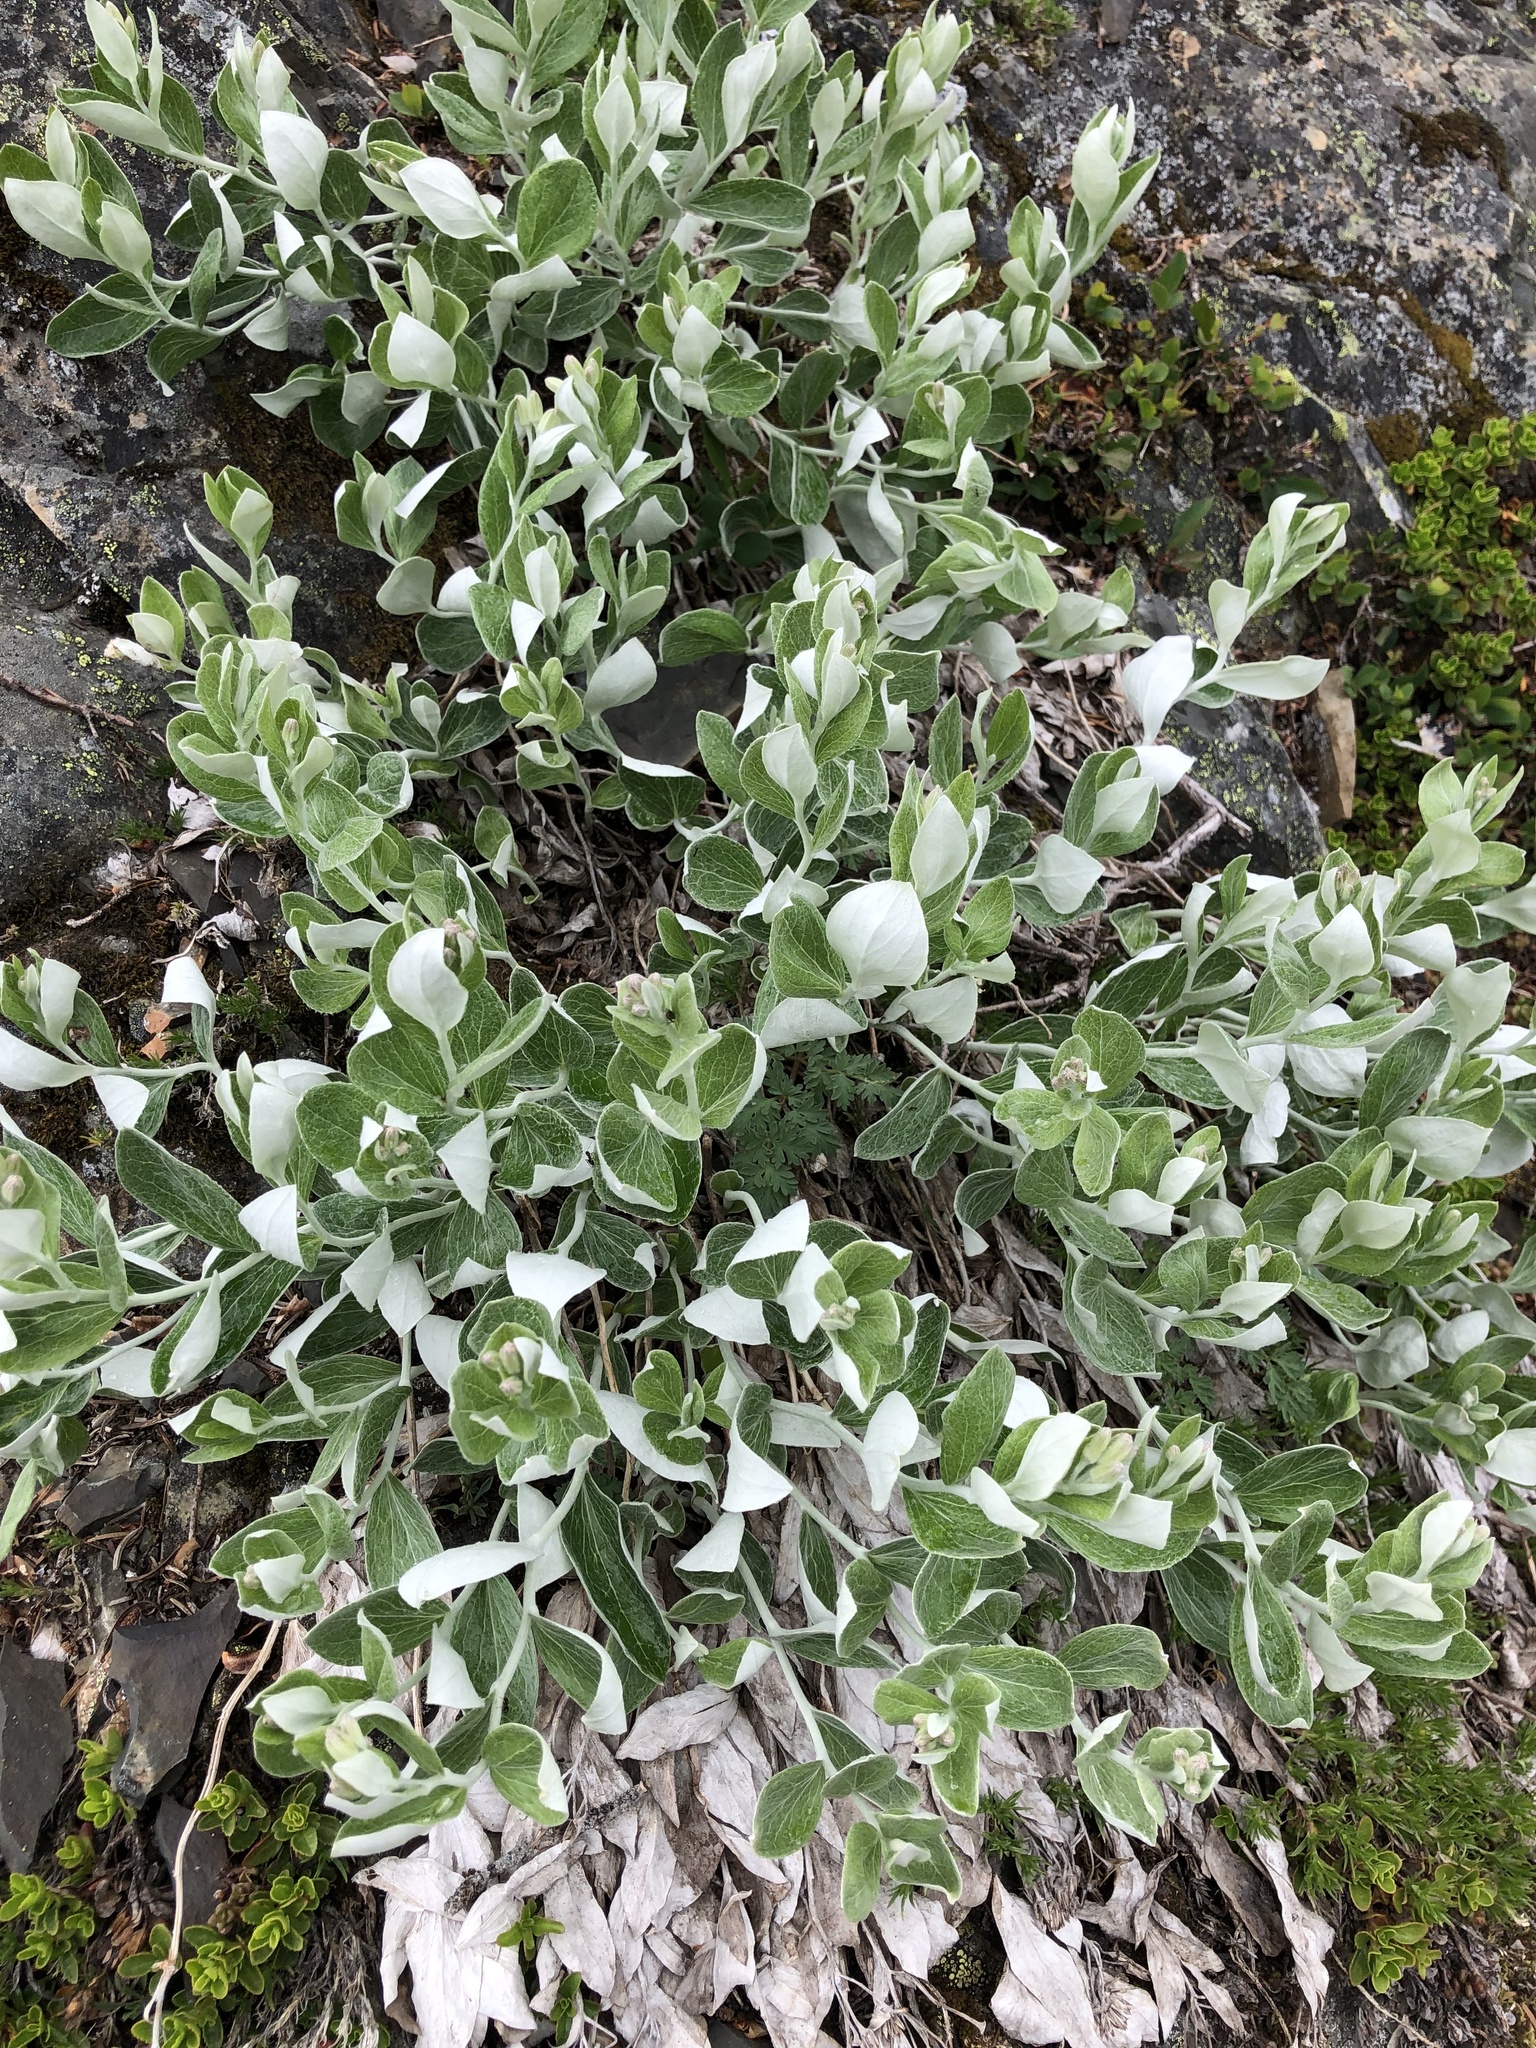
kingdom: Plantae
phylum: Tracheophyta
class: Magnoliopsida
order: Asterales
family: Asteraceae
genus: Luina
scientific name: Luina hypoleuca
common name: Little-leaved luina
